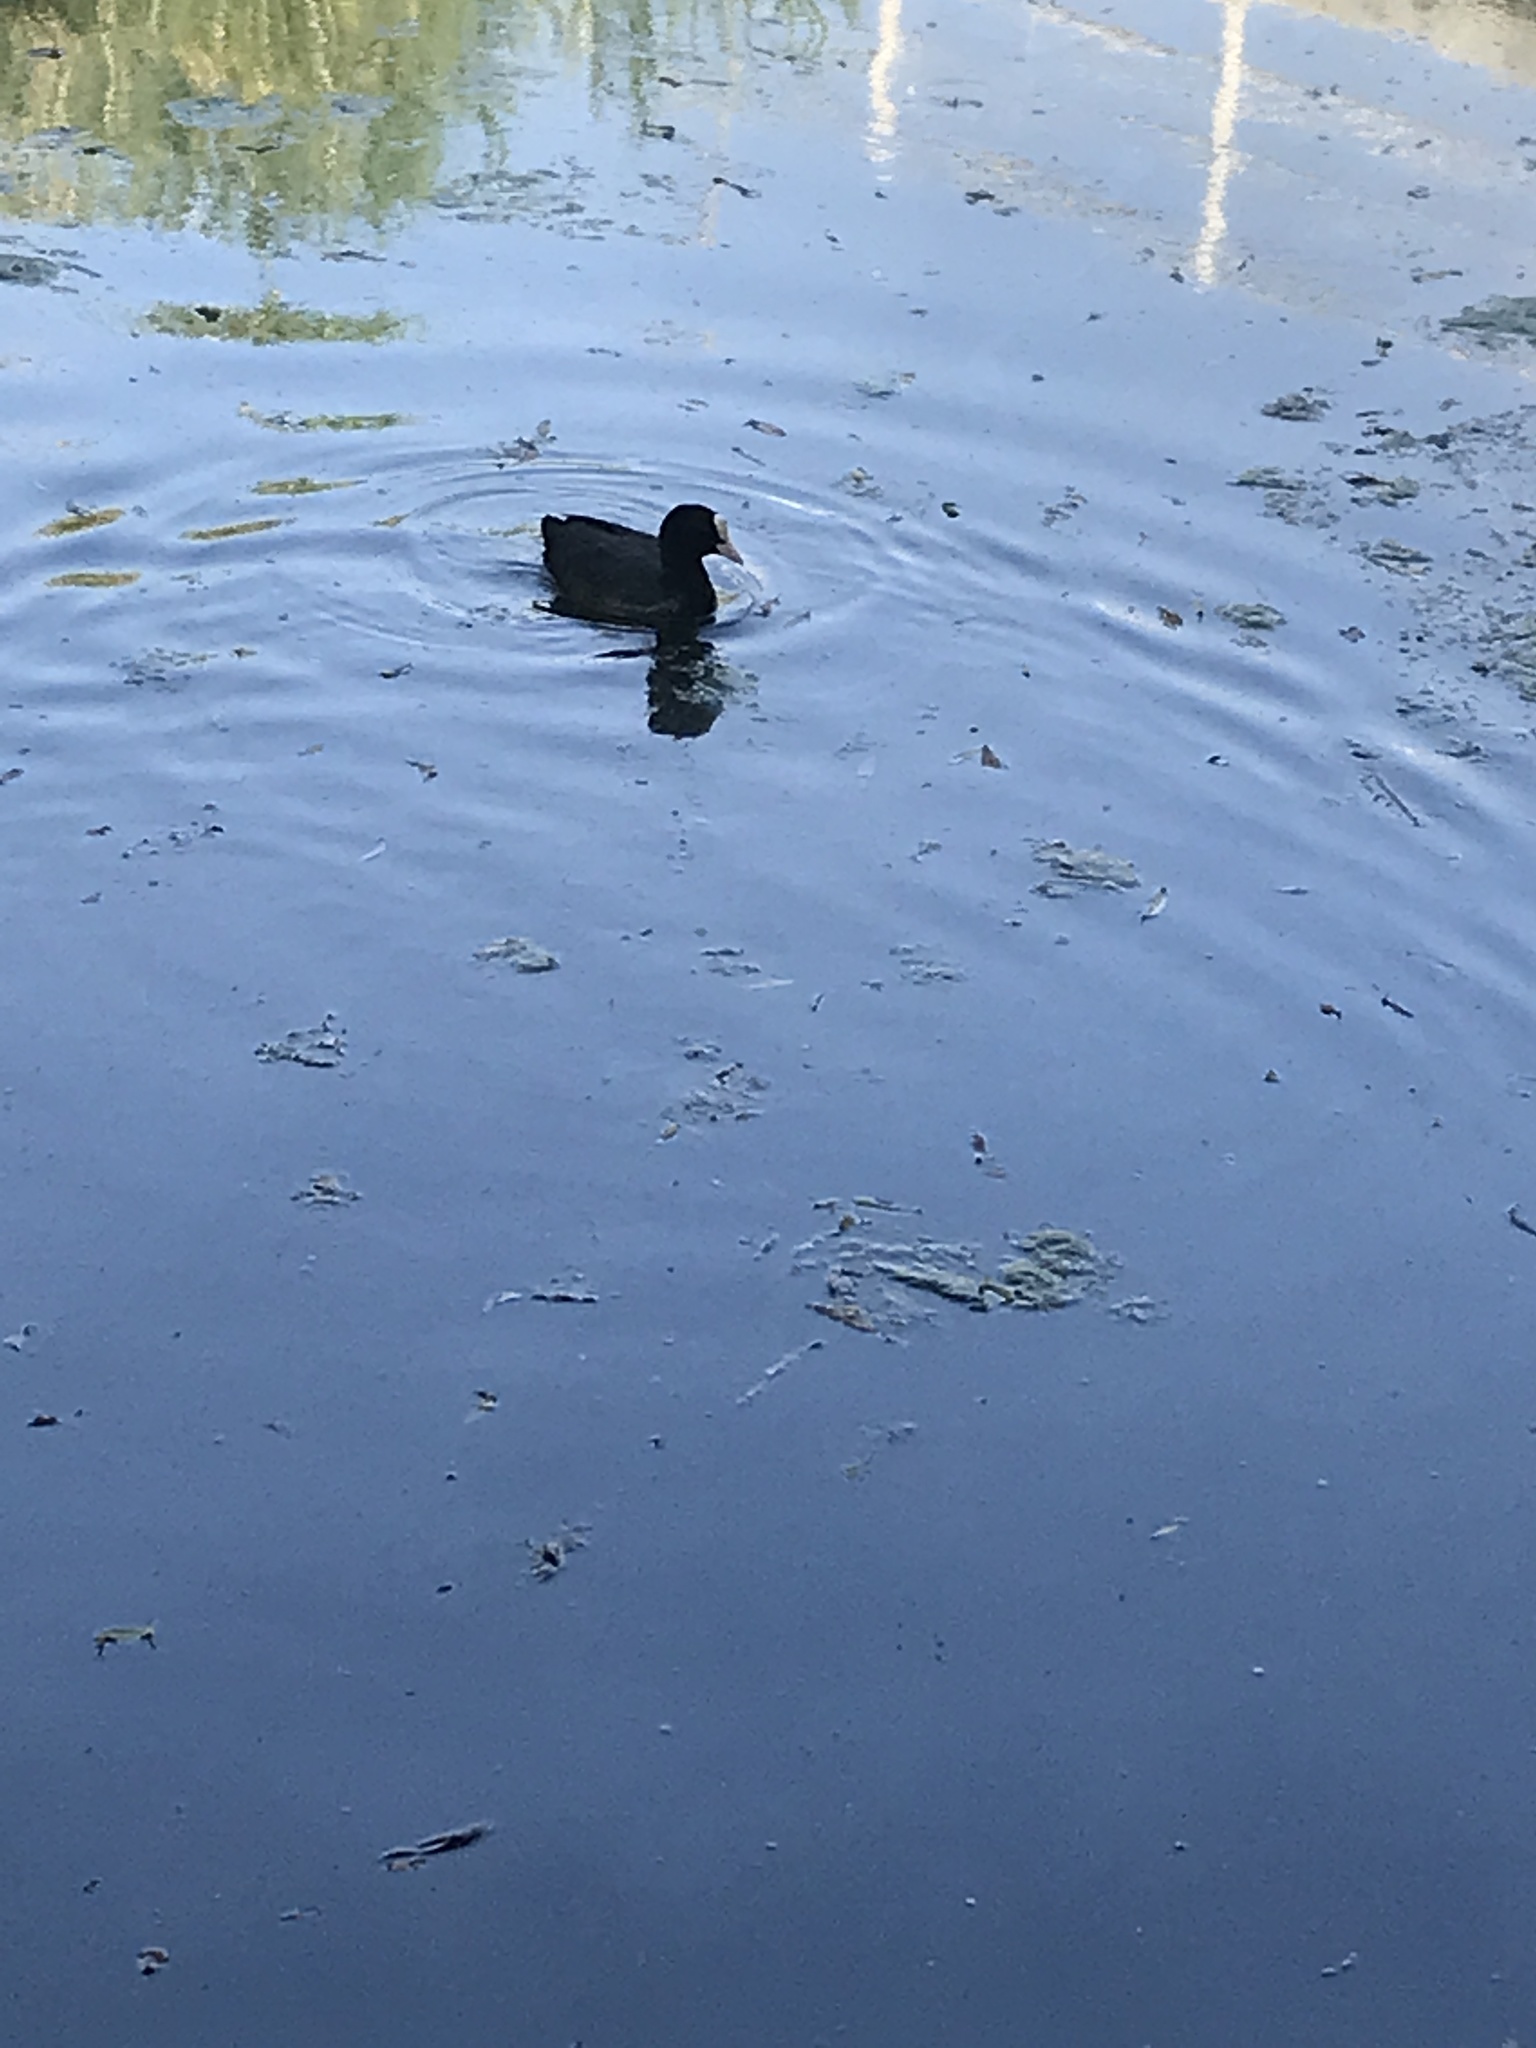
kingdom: Animalia
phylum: Chordata
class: Aves
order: Gruiformes
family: Rallidae
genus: Fulica
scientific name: Fulica atra
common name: Eurasian coot
